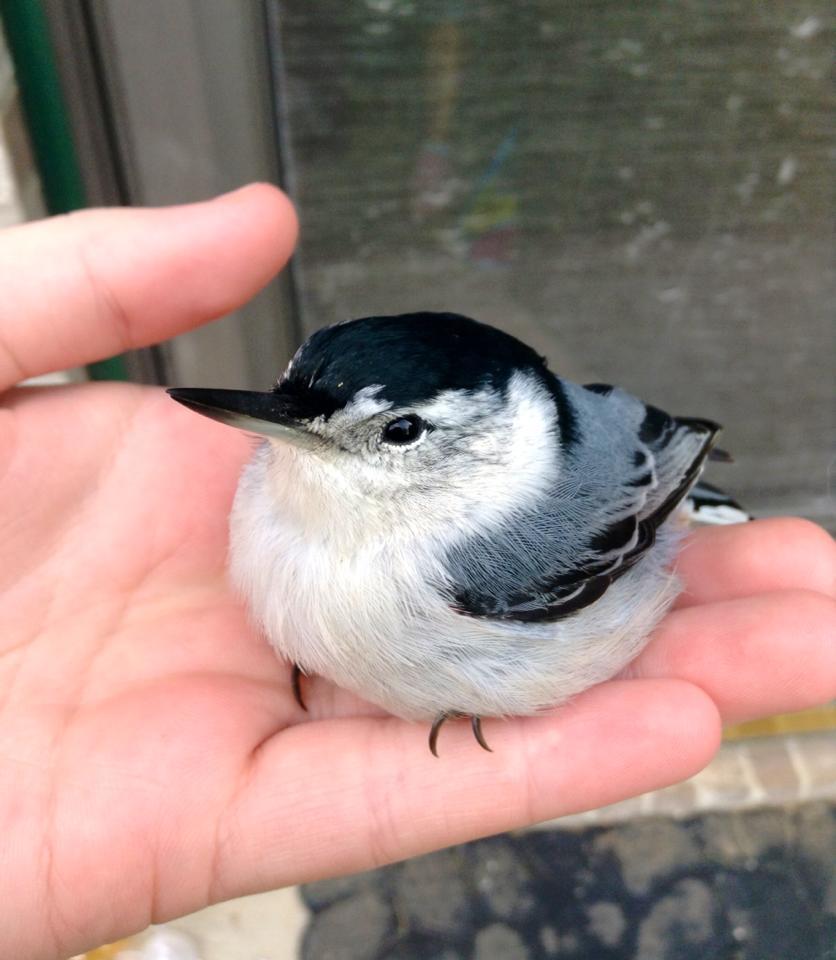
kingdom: Animalia
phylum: Chordata
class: Aves
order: Passeriformes
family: Sittidae
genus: Sitta
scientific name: Sitta carolinensis
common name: White-breasted nuthatch
